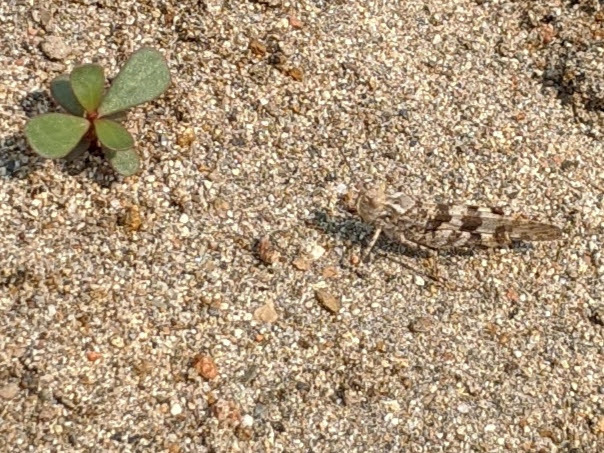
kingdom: Animalia
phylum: Arthropoda
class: Insecta
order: Orthoptera
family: Acrididae
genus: Trimerotropis
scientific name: Trimerotropis pallidipennis
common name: Pallid-winged grasshopper
